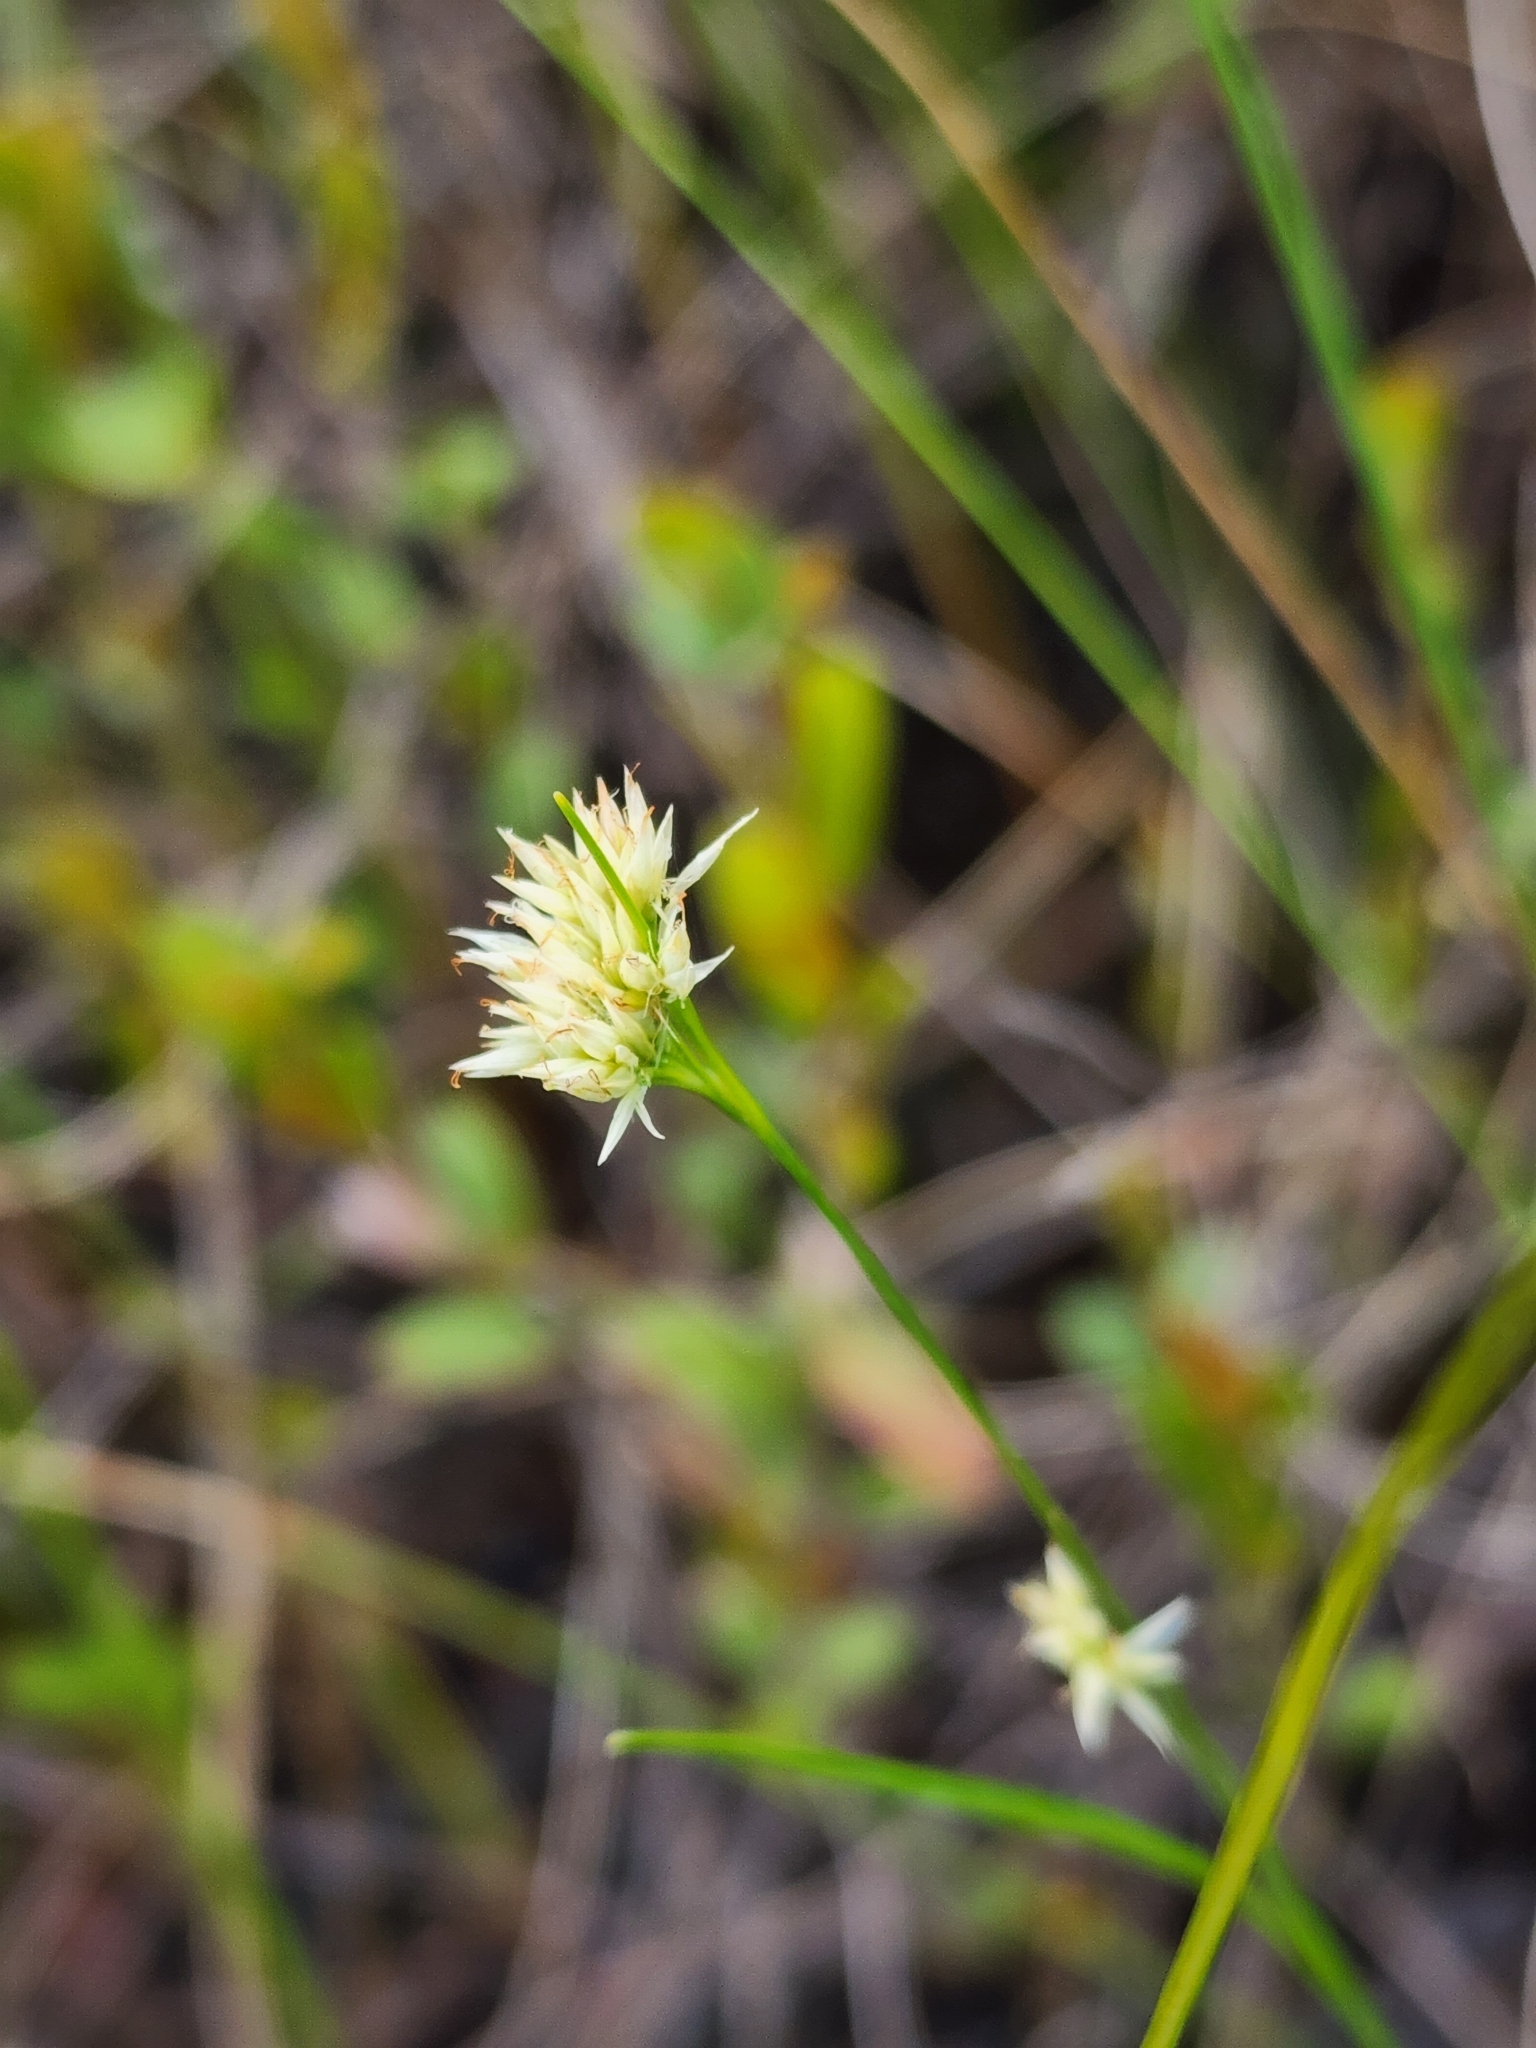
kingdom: Plantae
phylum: Tracheophyta
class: Liliopsida
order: Poales
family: Cyperaceae
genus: Rhynchospora
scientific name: Rhynchospora alba
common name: White beak-sedge
